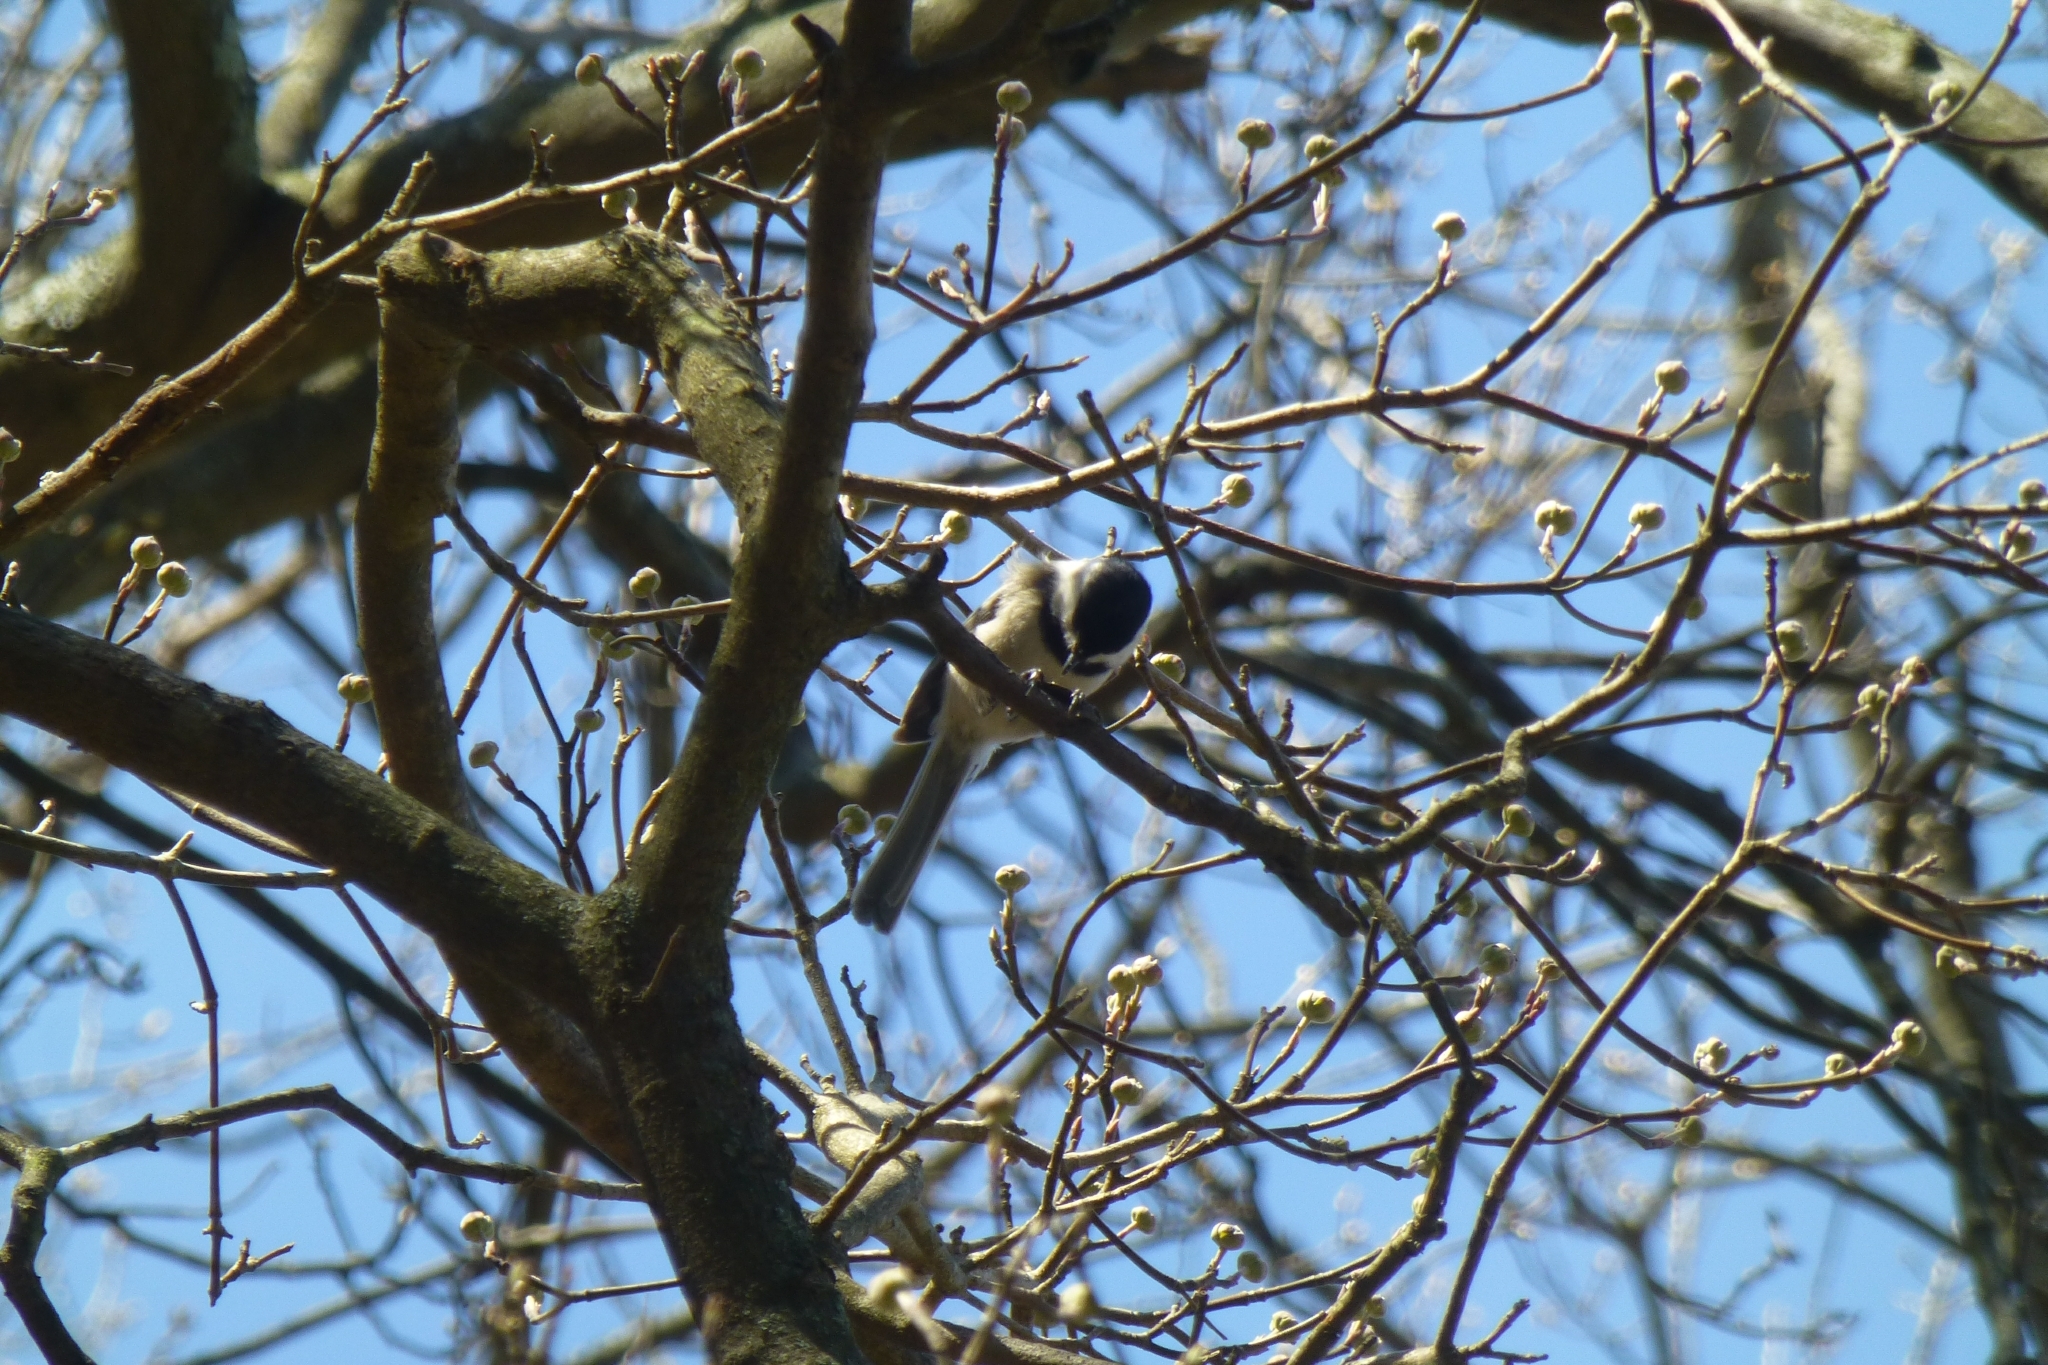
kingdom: Animalia
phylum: Chordata
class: Aves
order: Passeriformes
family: Paridae
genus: Poecile
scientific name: Poecile atricapillus
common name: Black-capped chickadee
